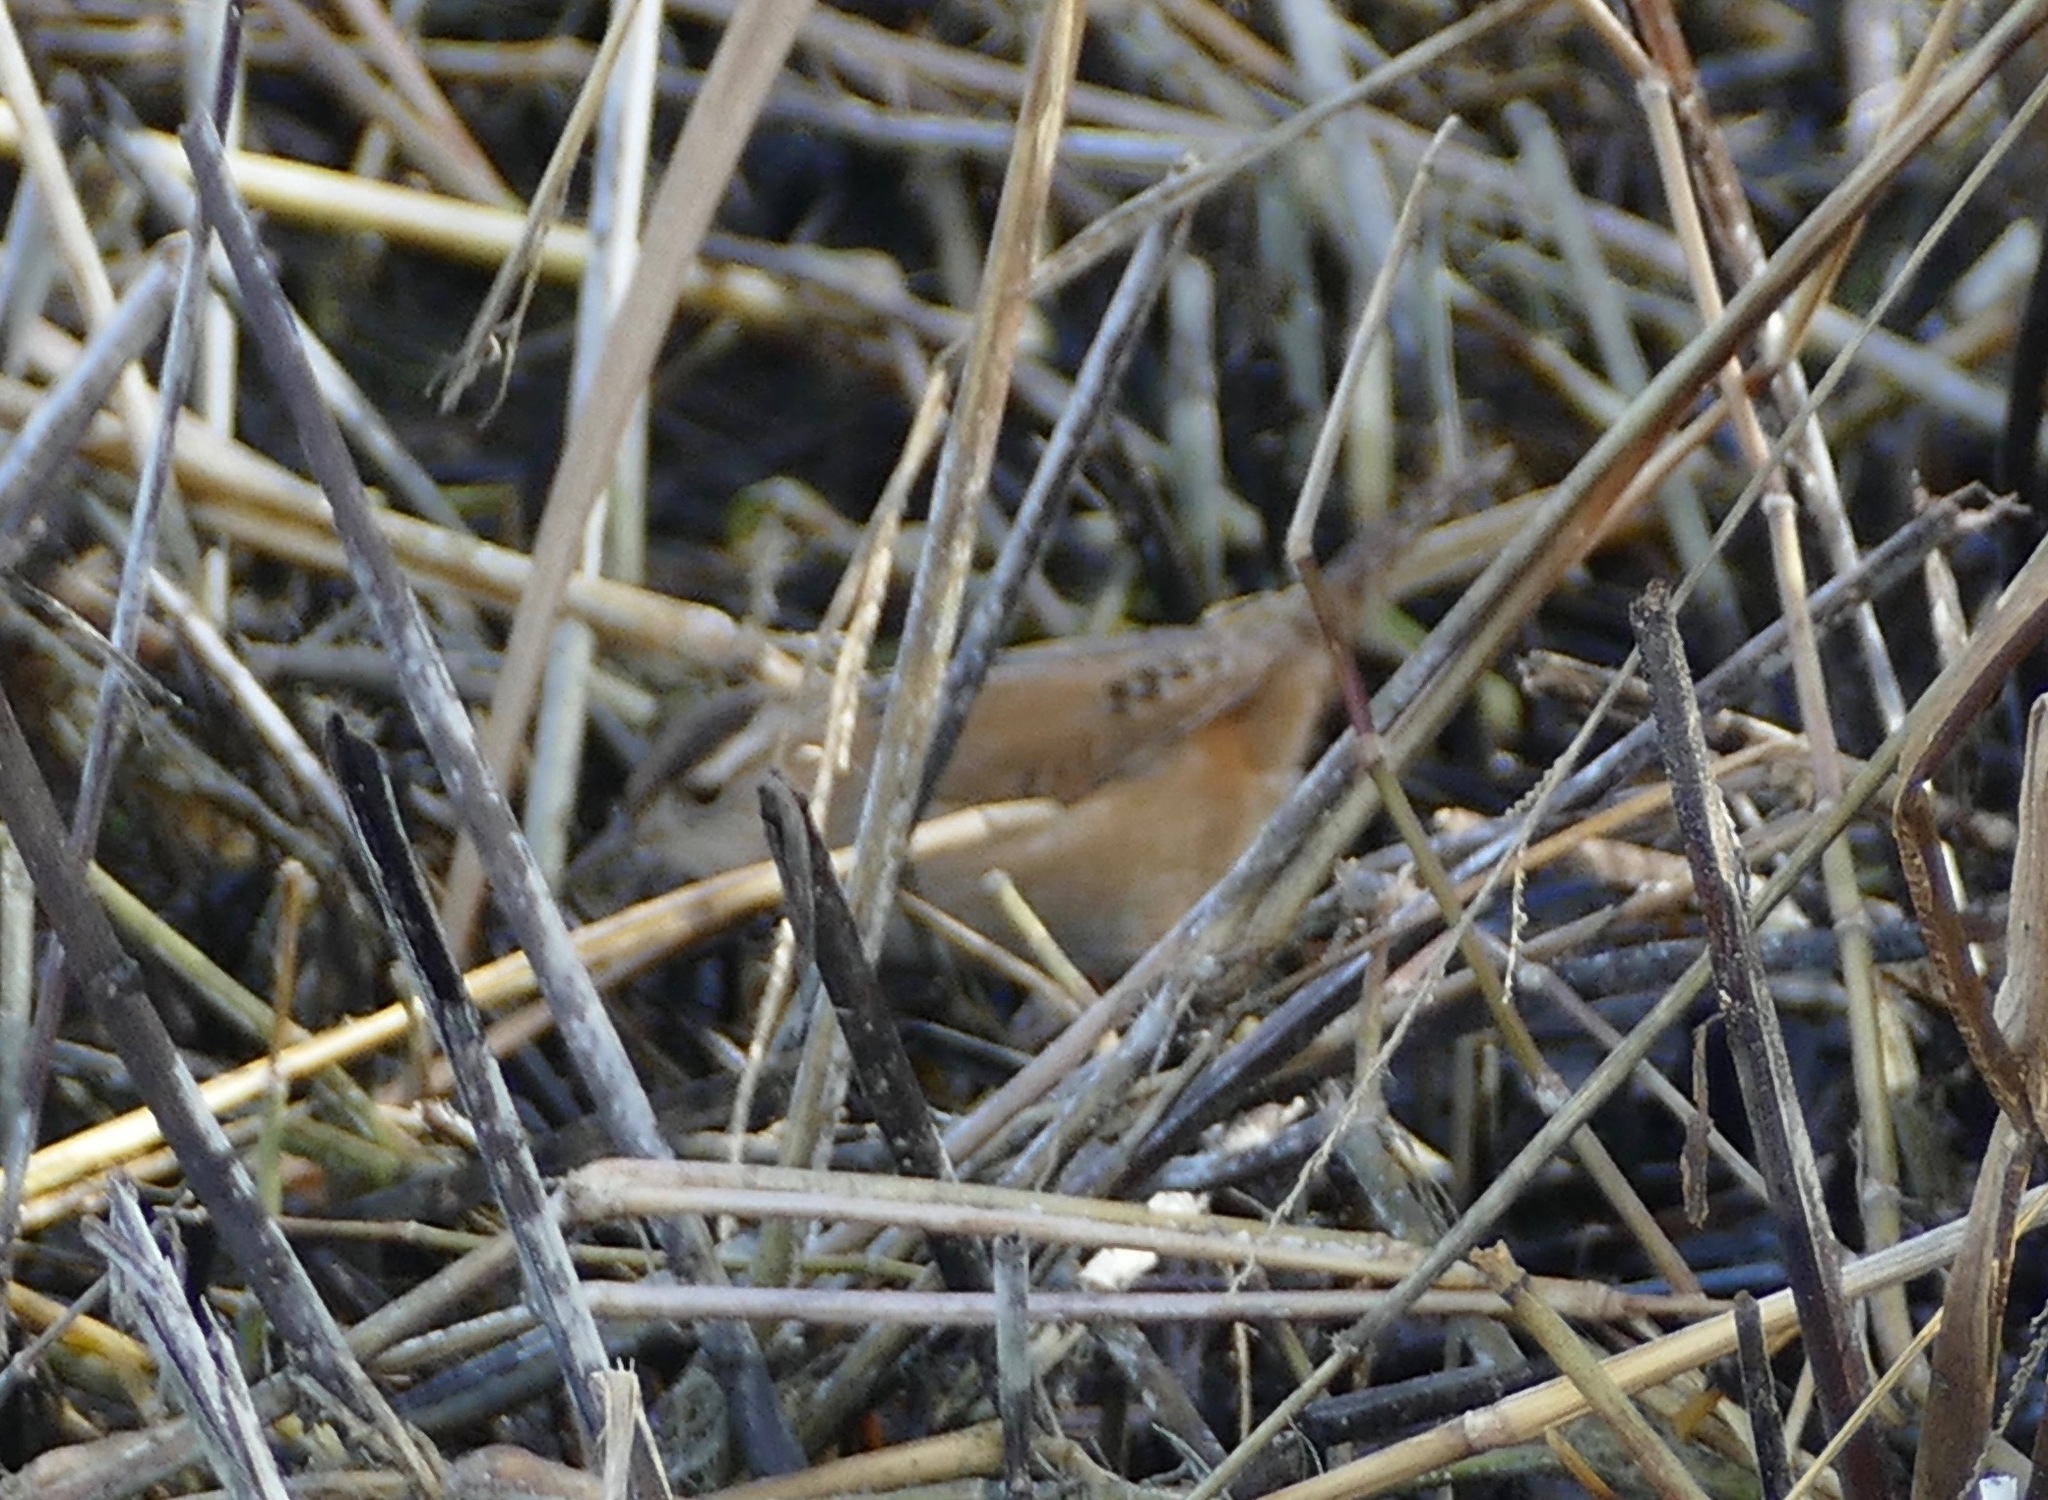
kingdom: Animalia
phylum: Chordata
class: Aves
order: Passeriformes
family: Troglodytidae
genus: Cistothorus
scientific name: Cistothorus palustris
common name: Marsh wren
